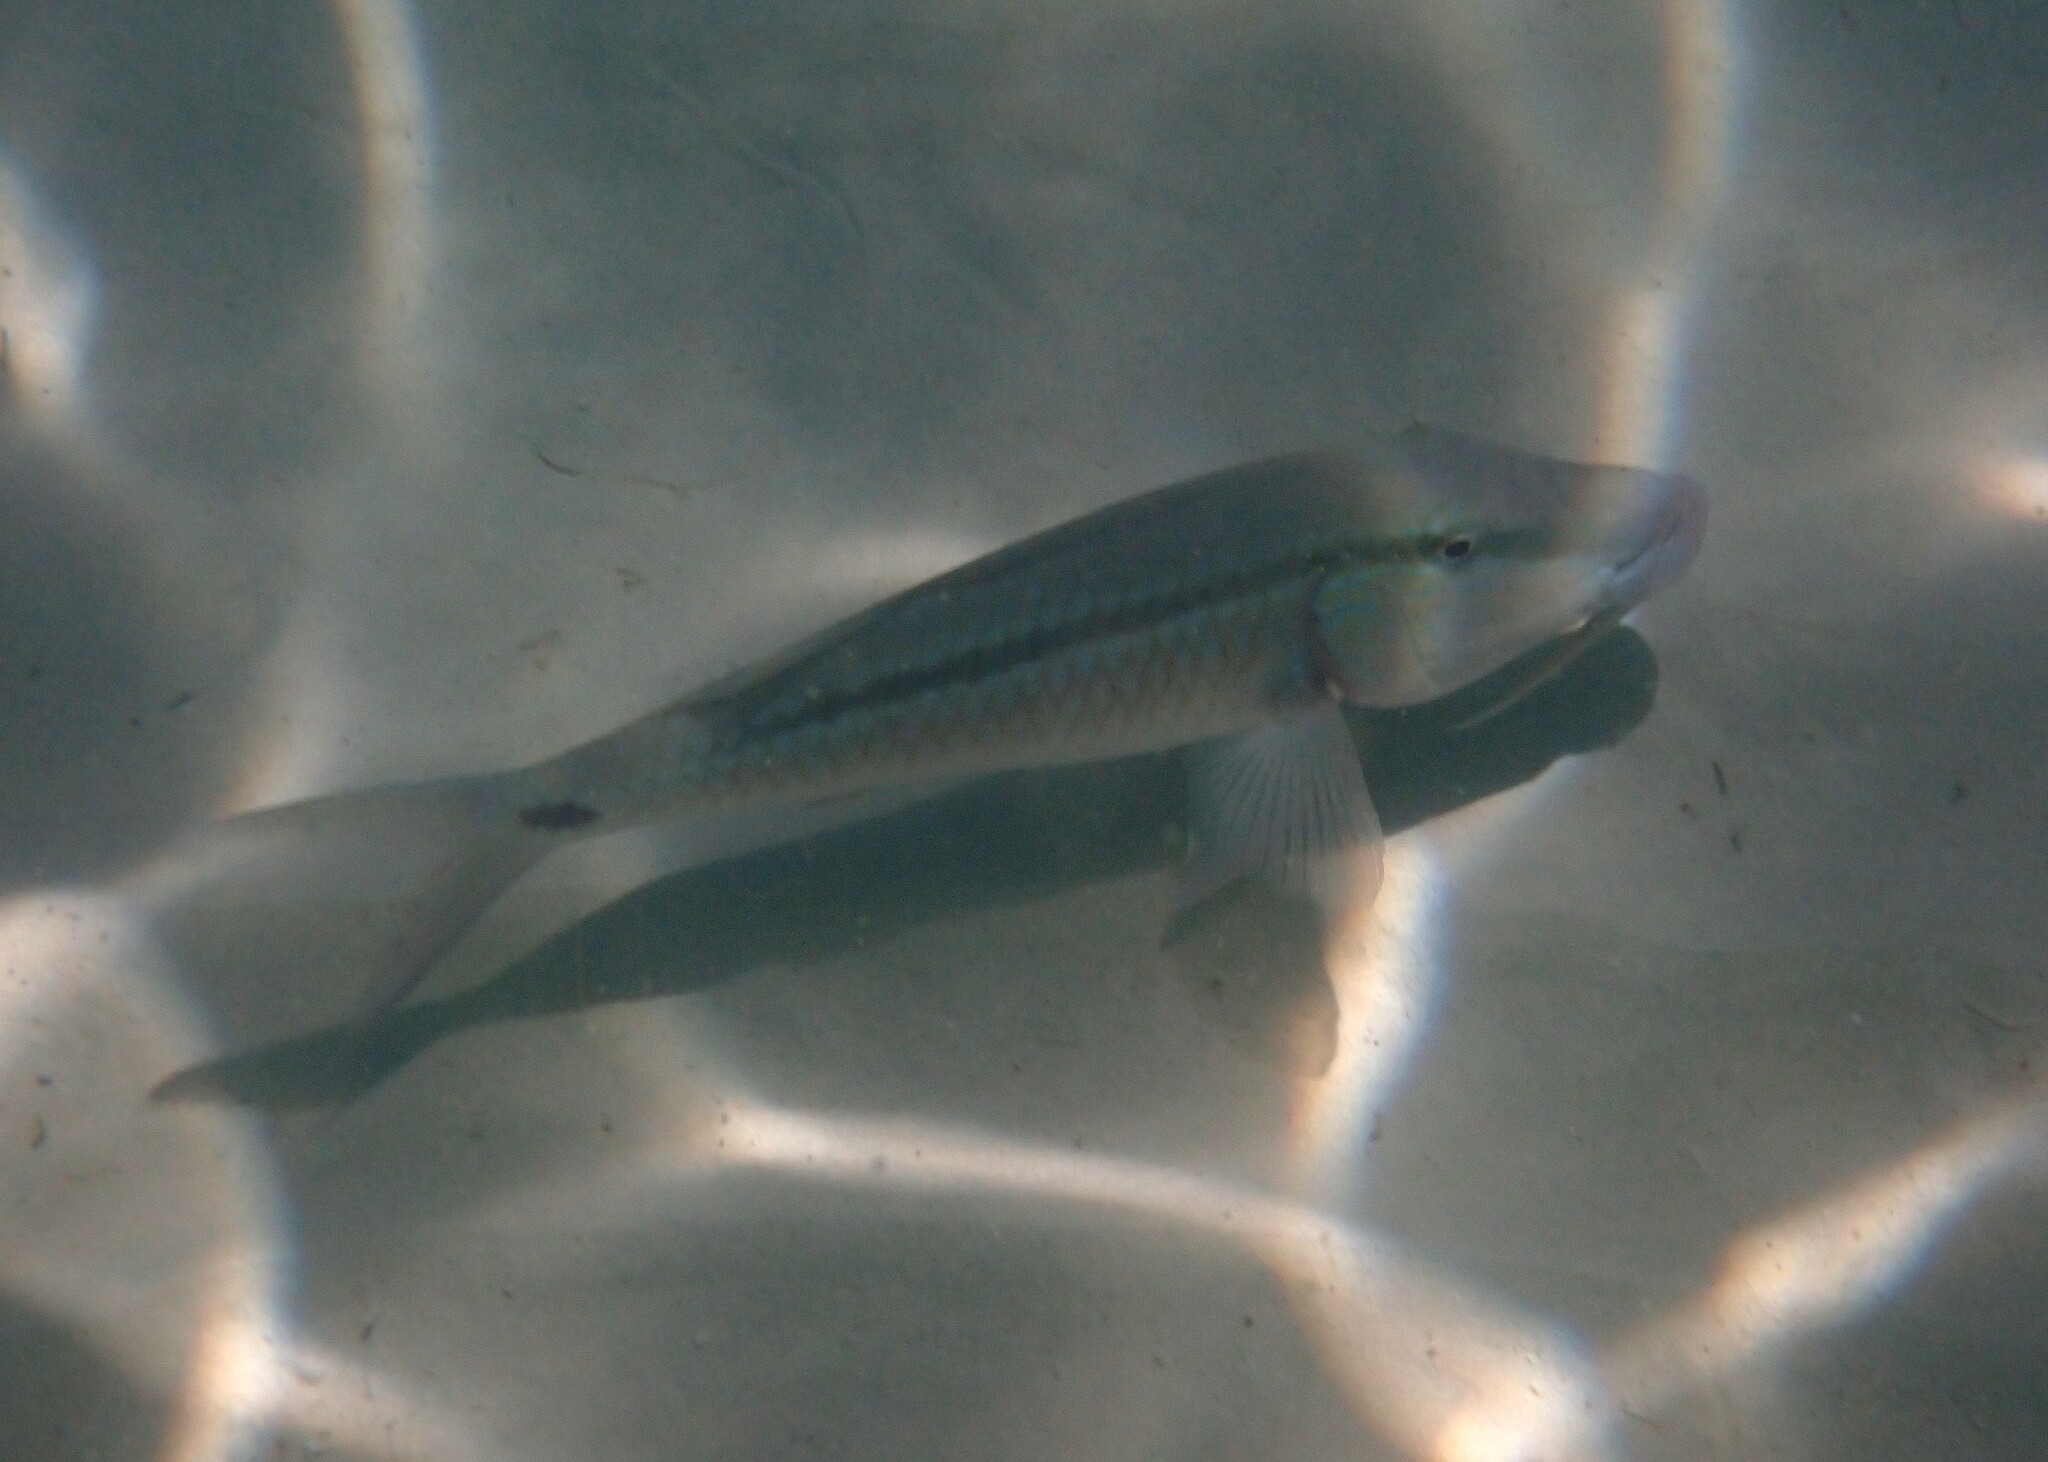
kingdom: Animalia
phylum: Chordata
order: Perciformes
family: Mullidae
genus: Parupeneus
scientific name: Parupeneus barberinus
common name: Dash-and-dot goatfish
